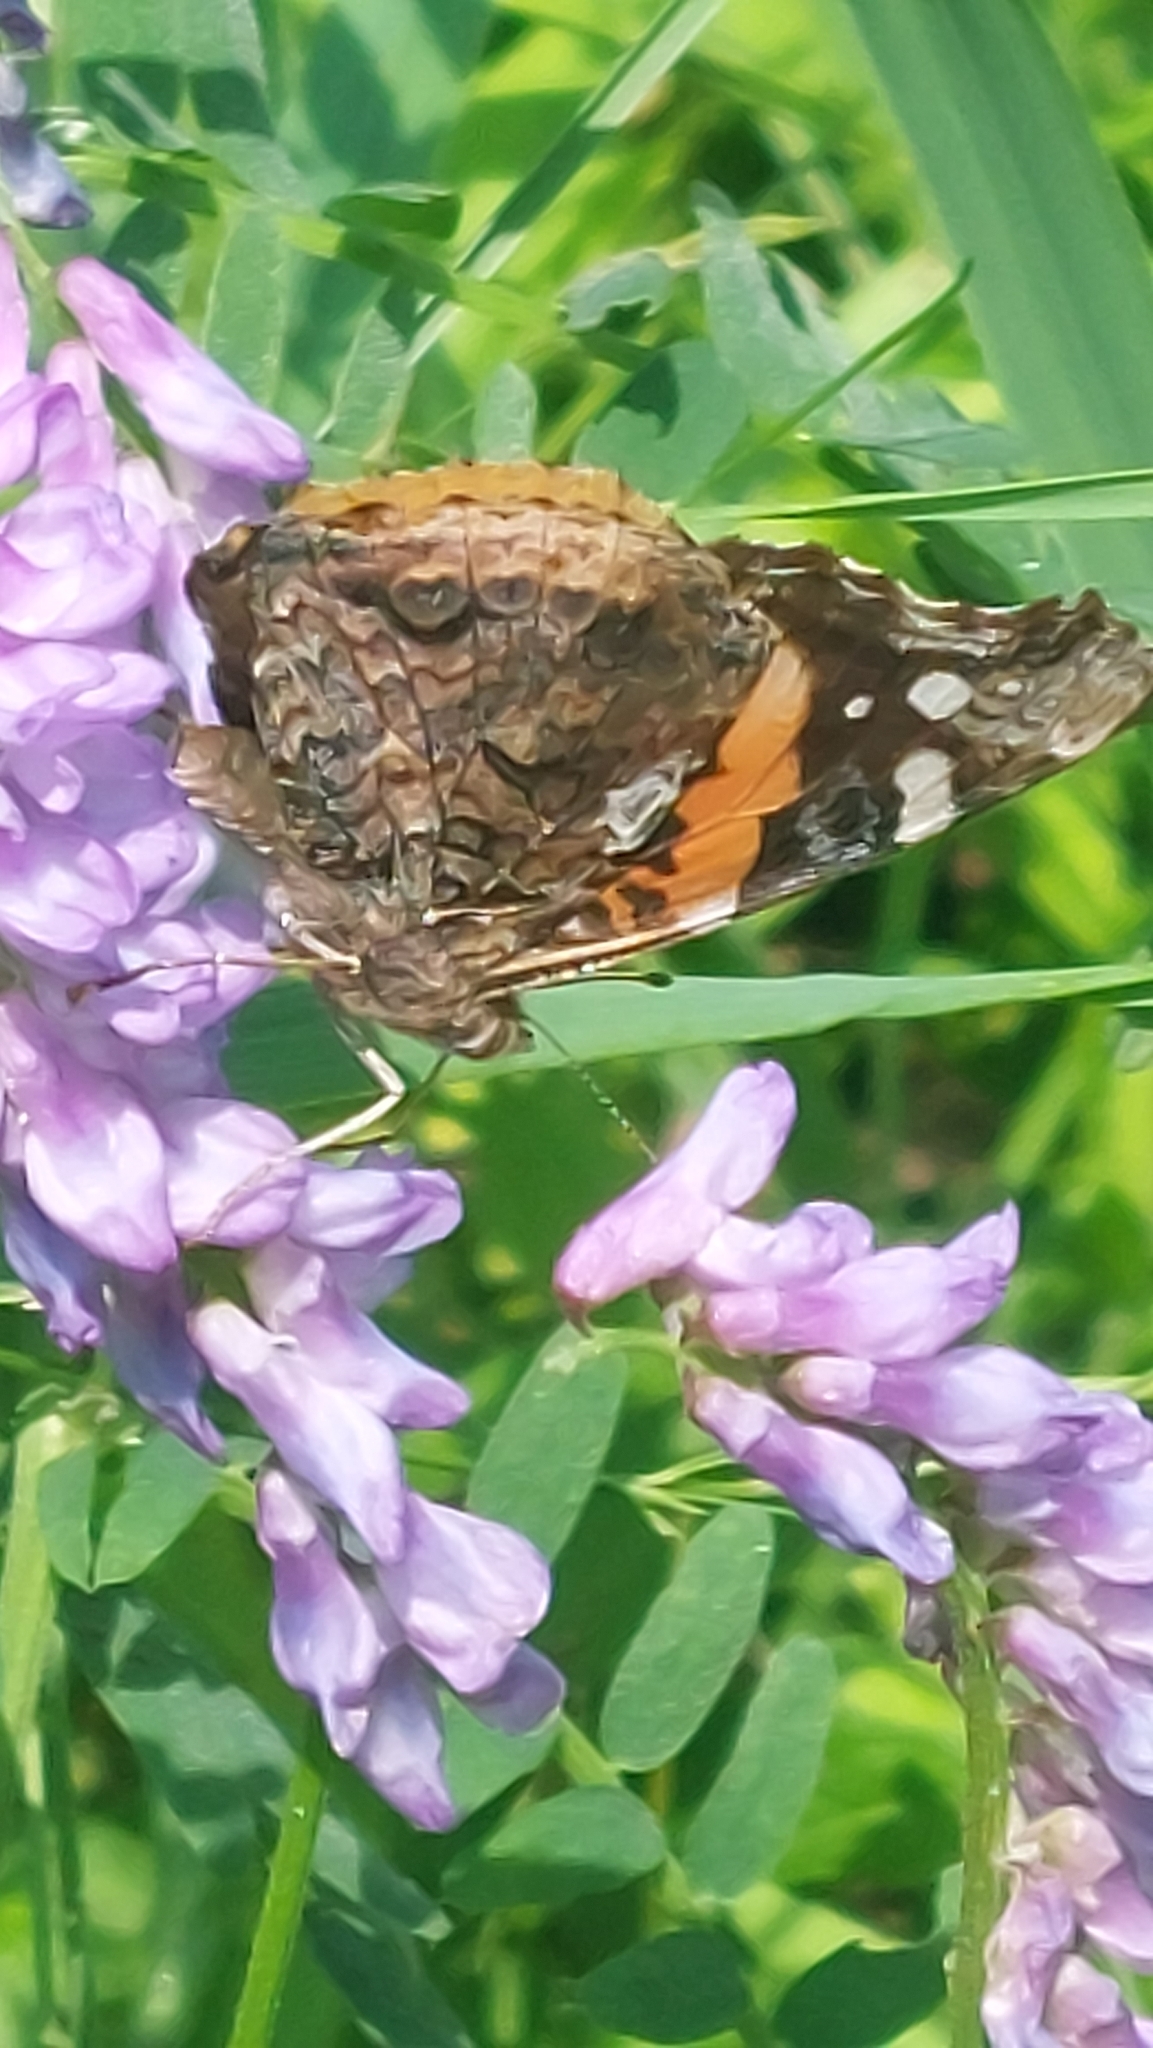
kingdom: Animalia
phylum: Arthropoda
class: Insecta
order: Lepidoptera
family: Nymphalidae
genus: Vanessa
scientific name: Vanessa atalanta
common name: Red admiral
